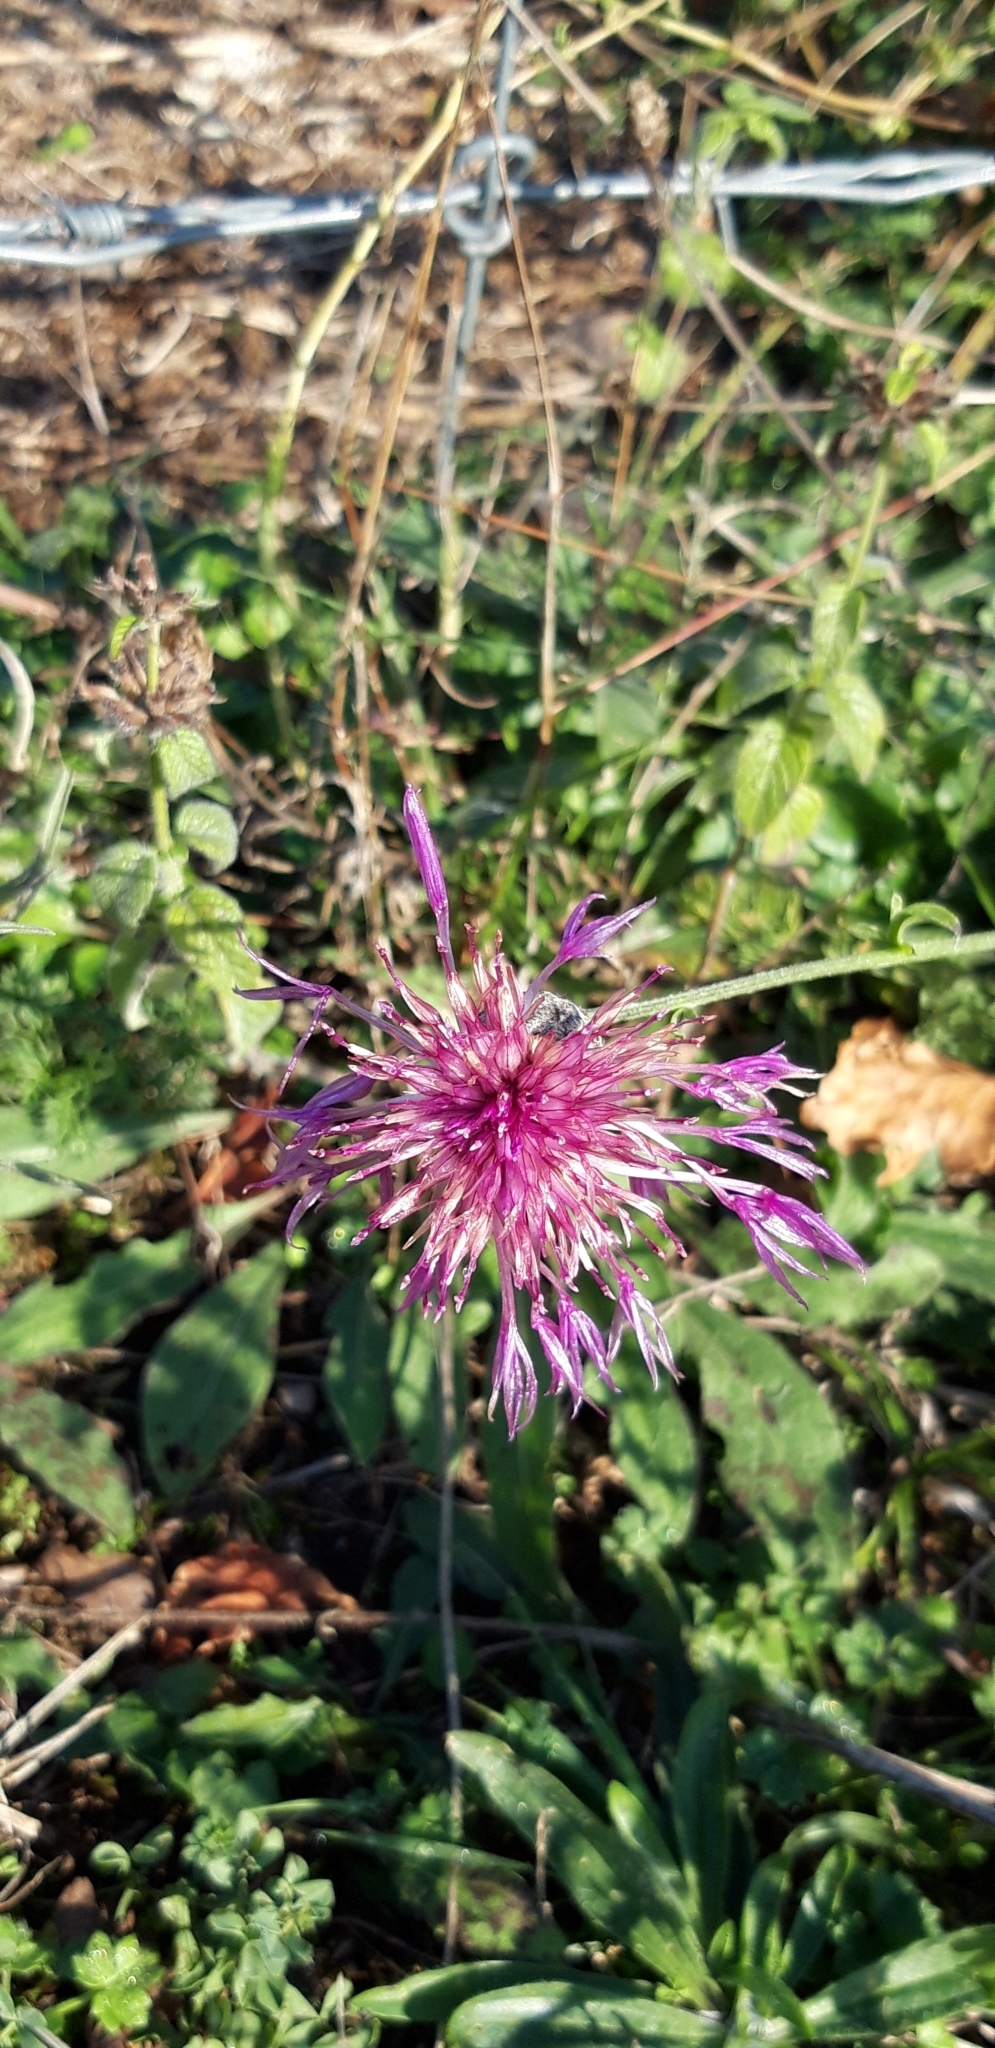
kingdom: Plantae
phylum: Tracheophyta
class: Magnoliopsida
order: Asterales
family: Asteraceae
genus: Centaurea
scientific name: Centaurea scabiosa
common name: Greater knapweed
